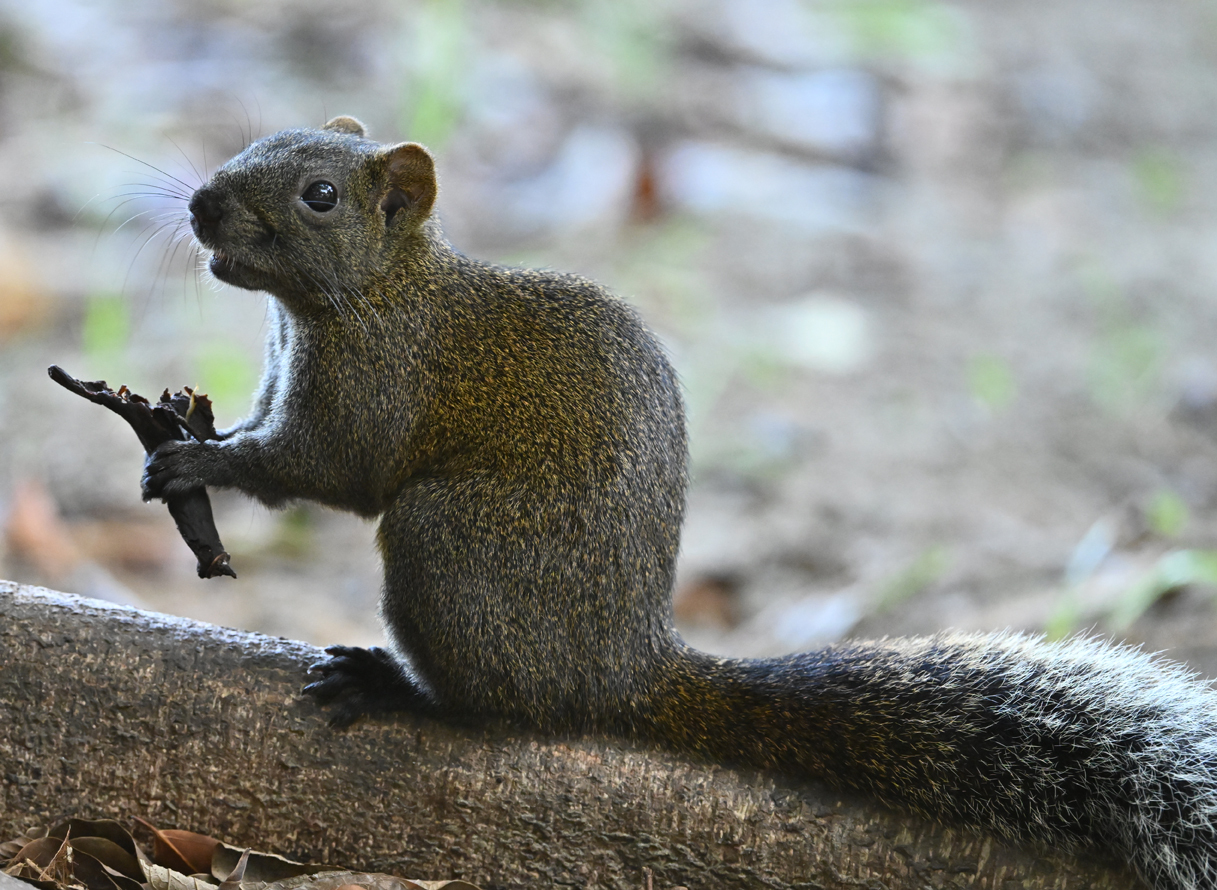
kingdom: Animalia
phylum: Chordata
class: Mammalia
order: Rodentia
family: Sciuridae
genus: Callosciurus
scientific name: Callosciurus erythraeus
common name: Pallas's squirrel
